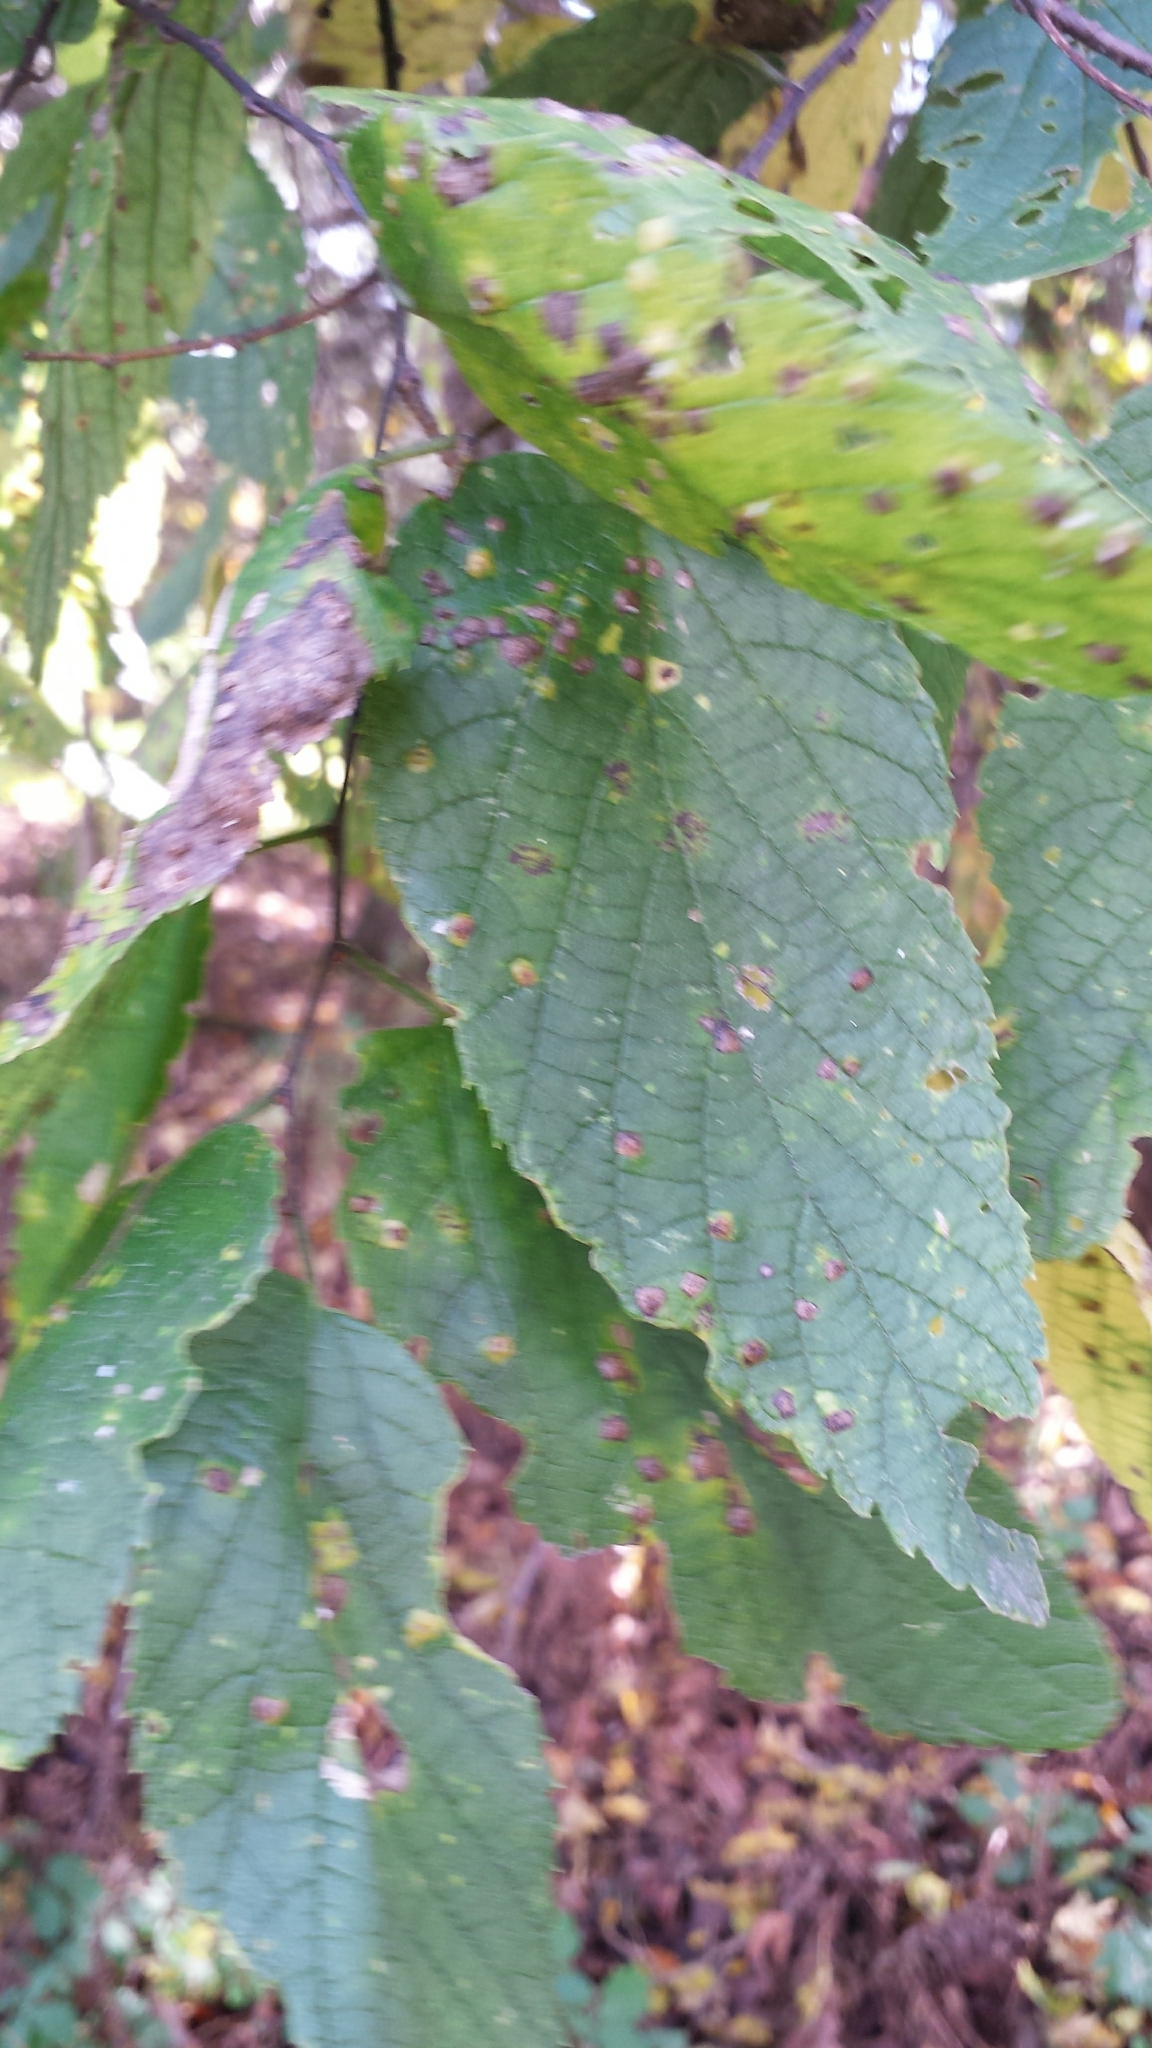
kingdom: Plantae
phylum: Tracheophyta
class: Magnoliopsida
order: Rosales
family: Cannabaceae
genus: Celtis
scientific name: Celtis occidentalis
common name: Common hackberry
